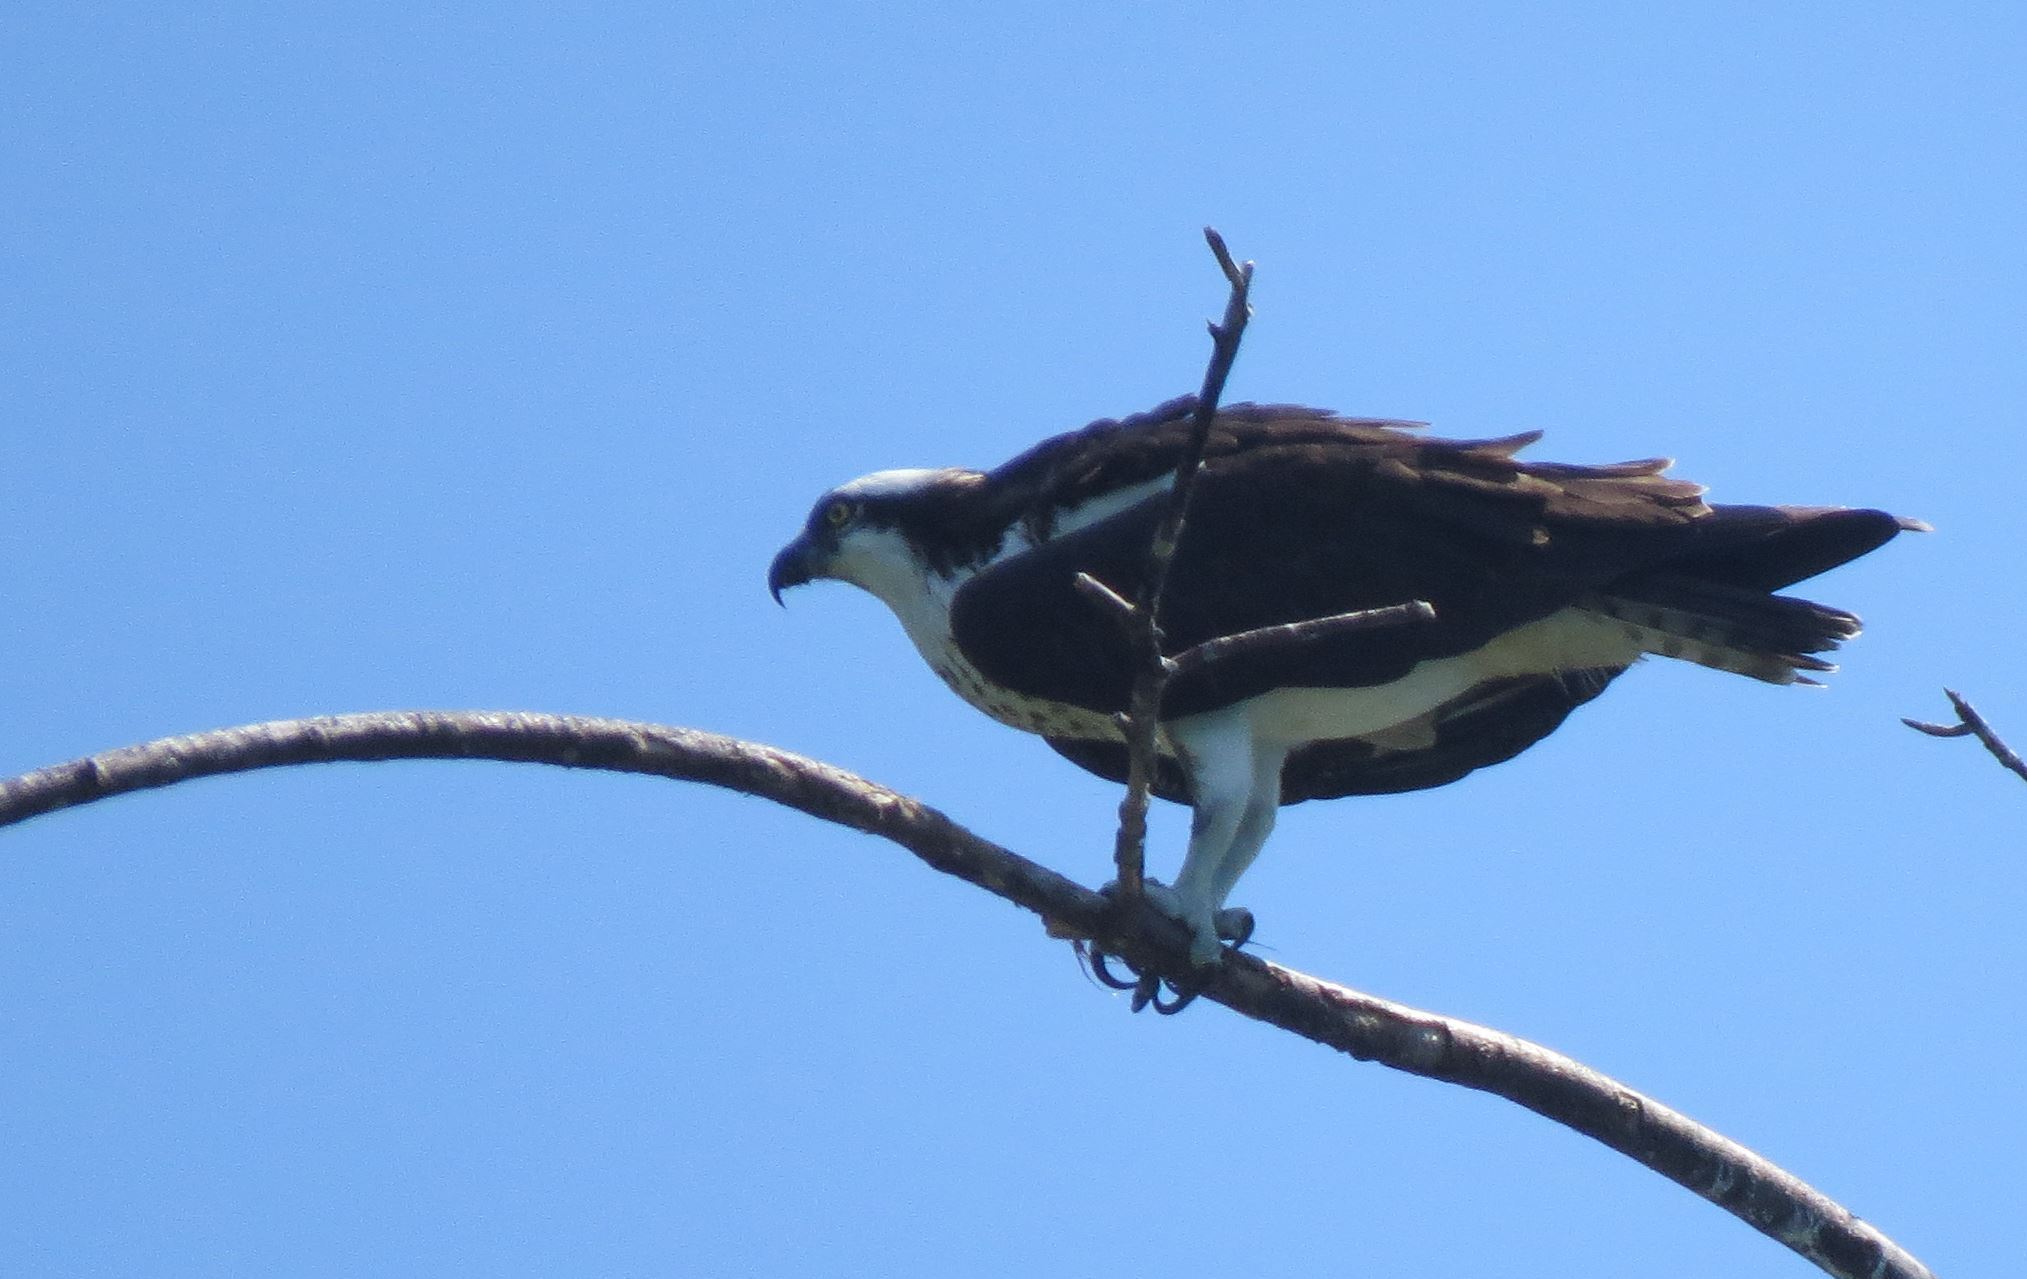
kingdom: Animalia
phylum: Chordata
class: Aves
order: Accipitriformes
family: Pandionidae
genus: Pandion
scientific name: Pandion haliaetus
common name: Osprey
